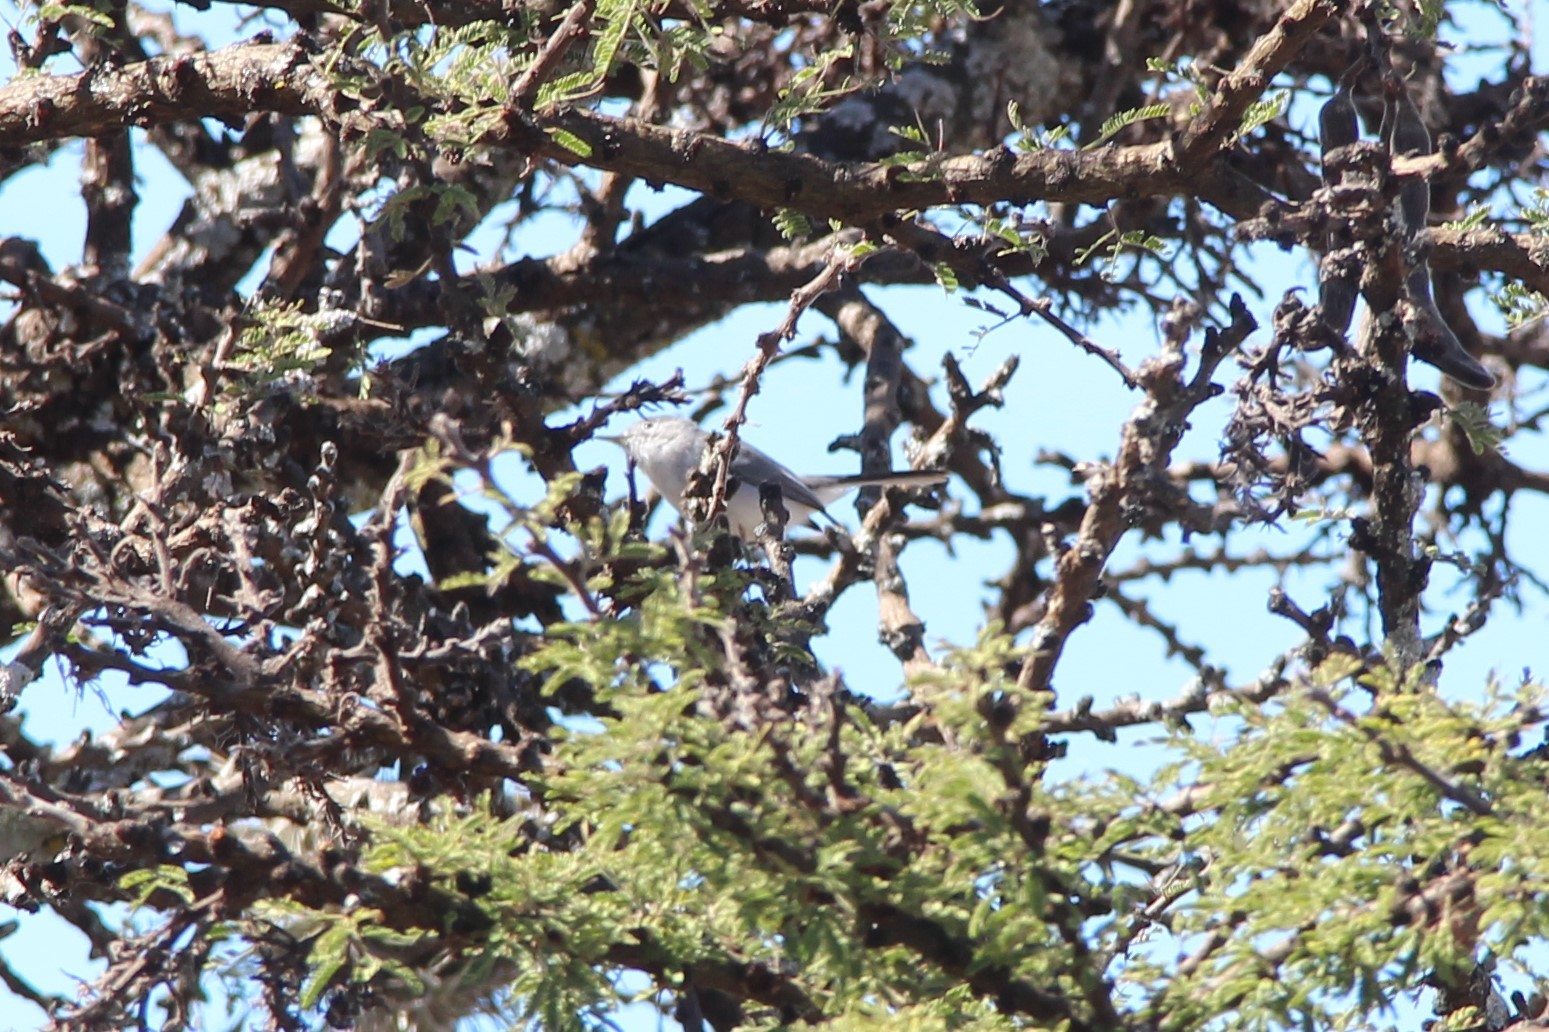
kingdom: Animalia
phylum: Chordata
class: Aves
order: Passeriformes
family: Polioptilidae
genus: Polioptila
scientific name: Polioptila caerulea
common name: Blue-gray gnatcatcher
